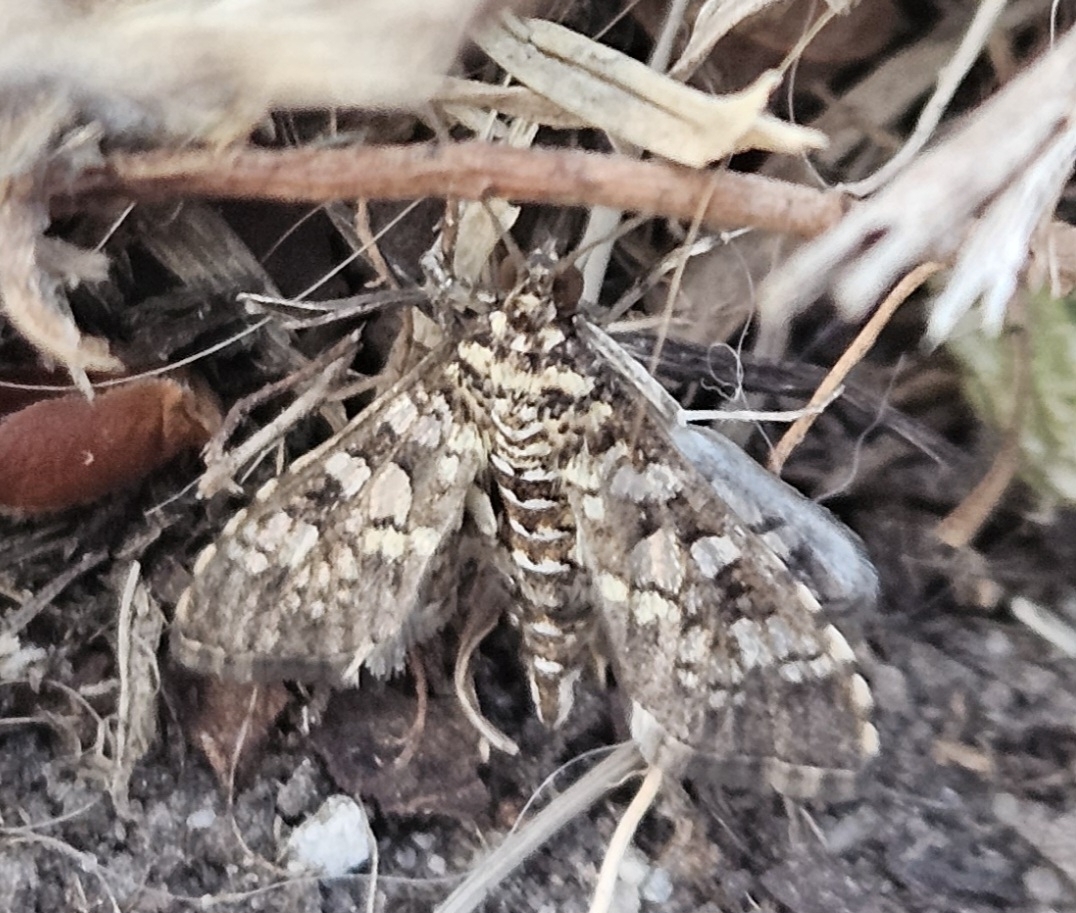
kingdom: Animalia
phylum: Arthropoda
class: Insecta
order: Lepidoptera
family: Crambidae
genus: Samea
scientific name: Samea ecclesialis
